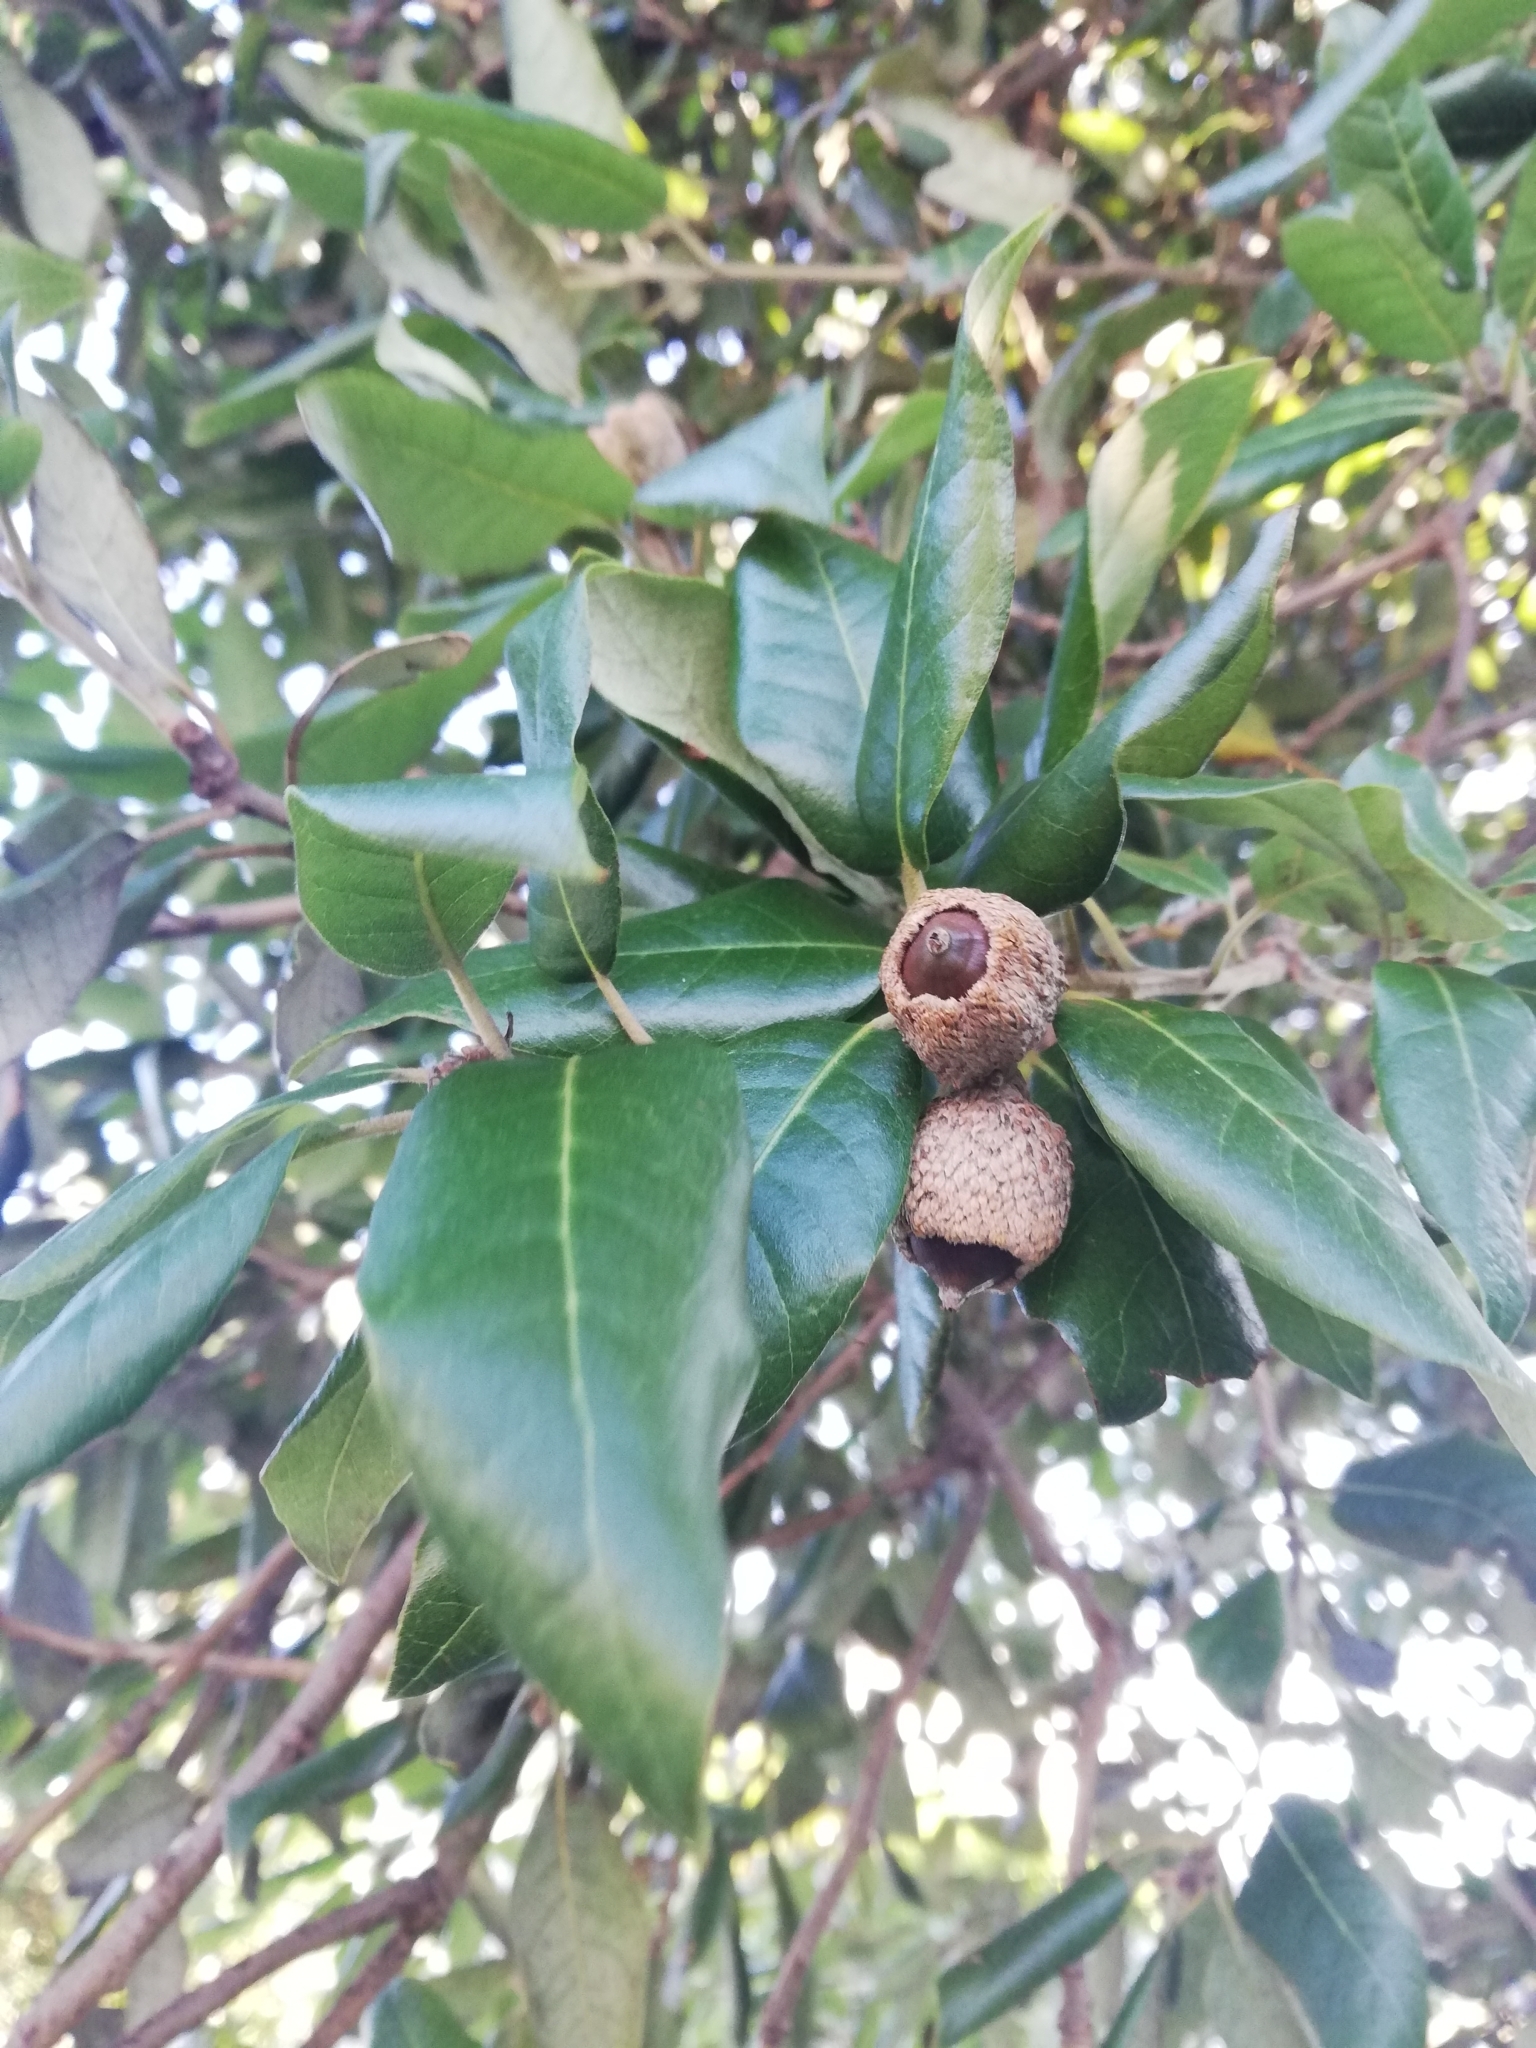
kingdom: Plantae
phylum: Tracheophyta
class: Magnoliopsida
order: Fagales
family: Fagaceae
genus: Quercus
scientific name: Quercus ilex
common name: Evergreen oak
